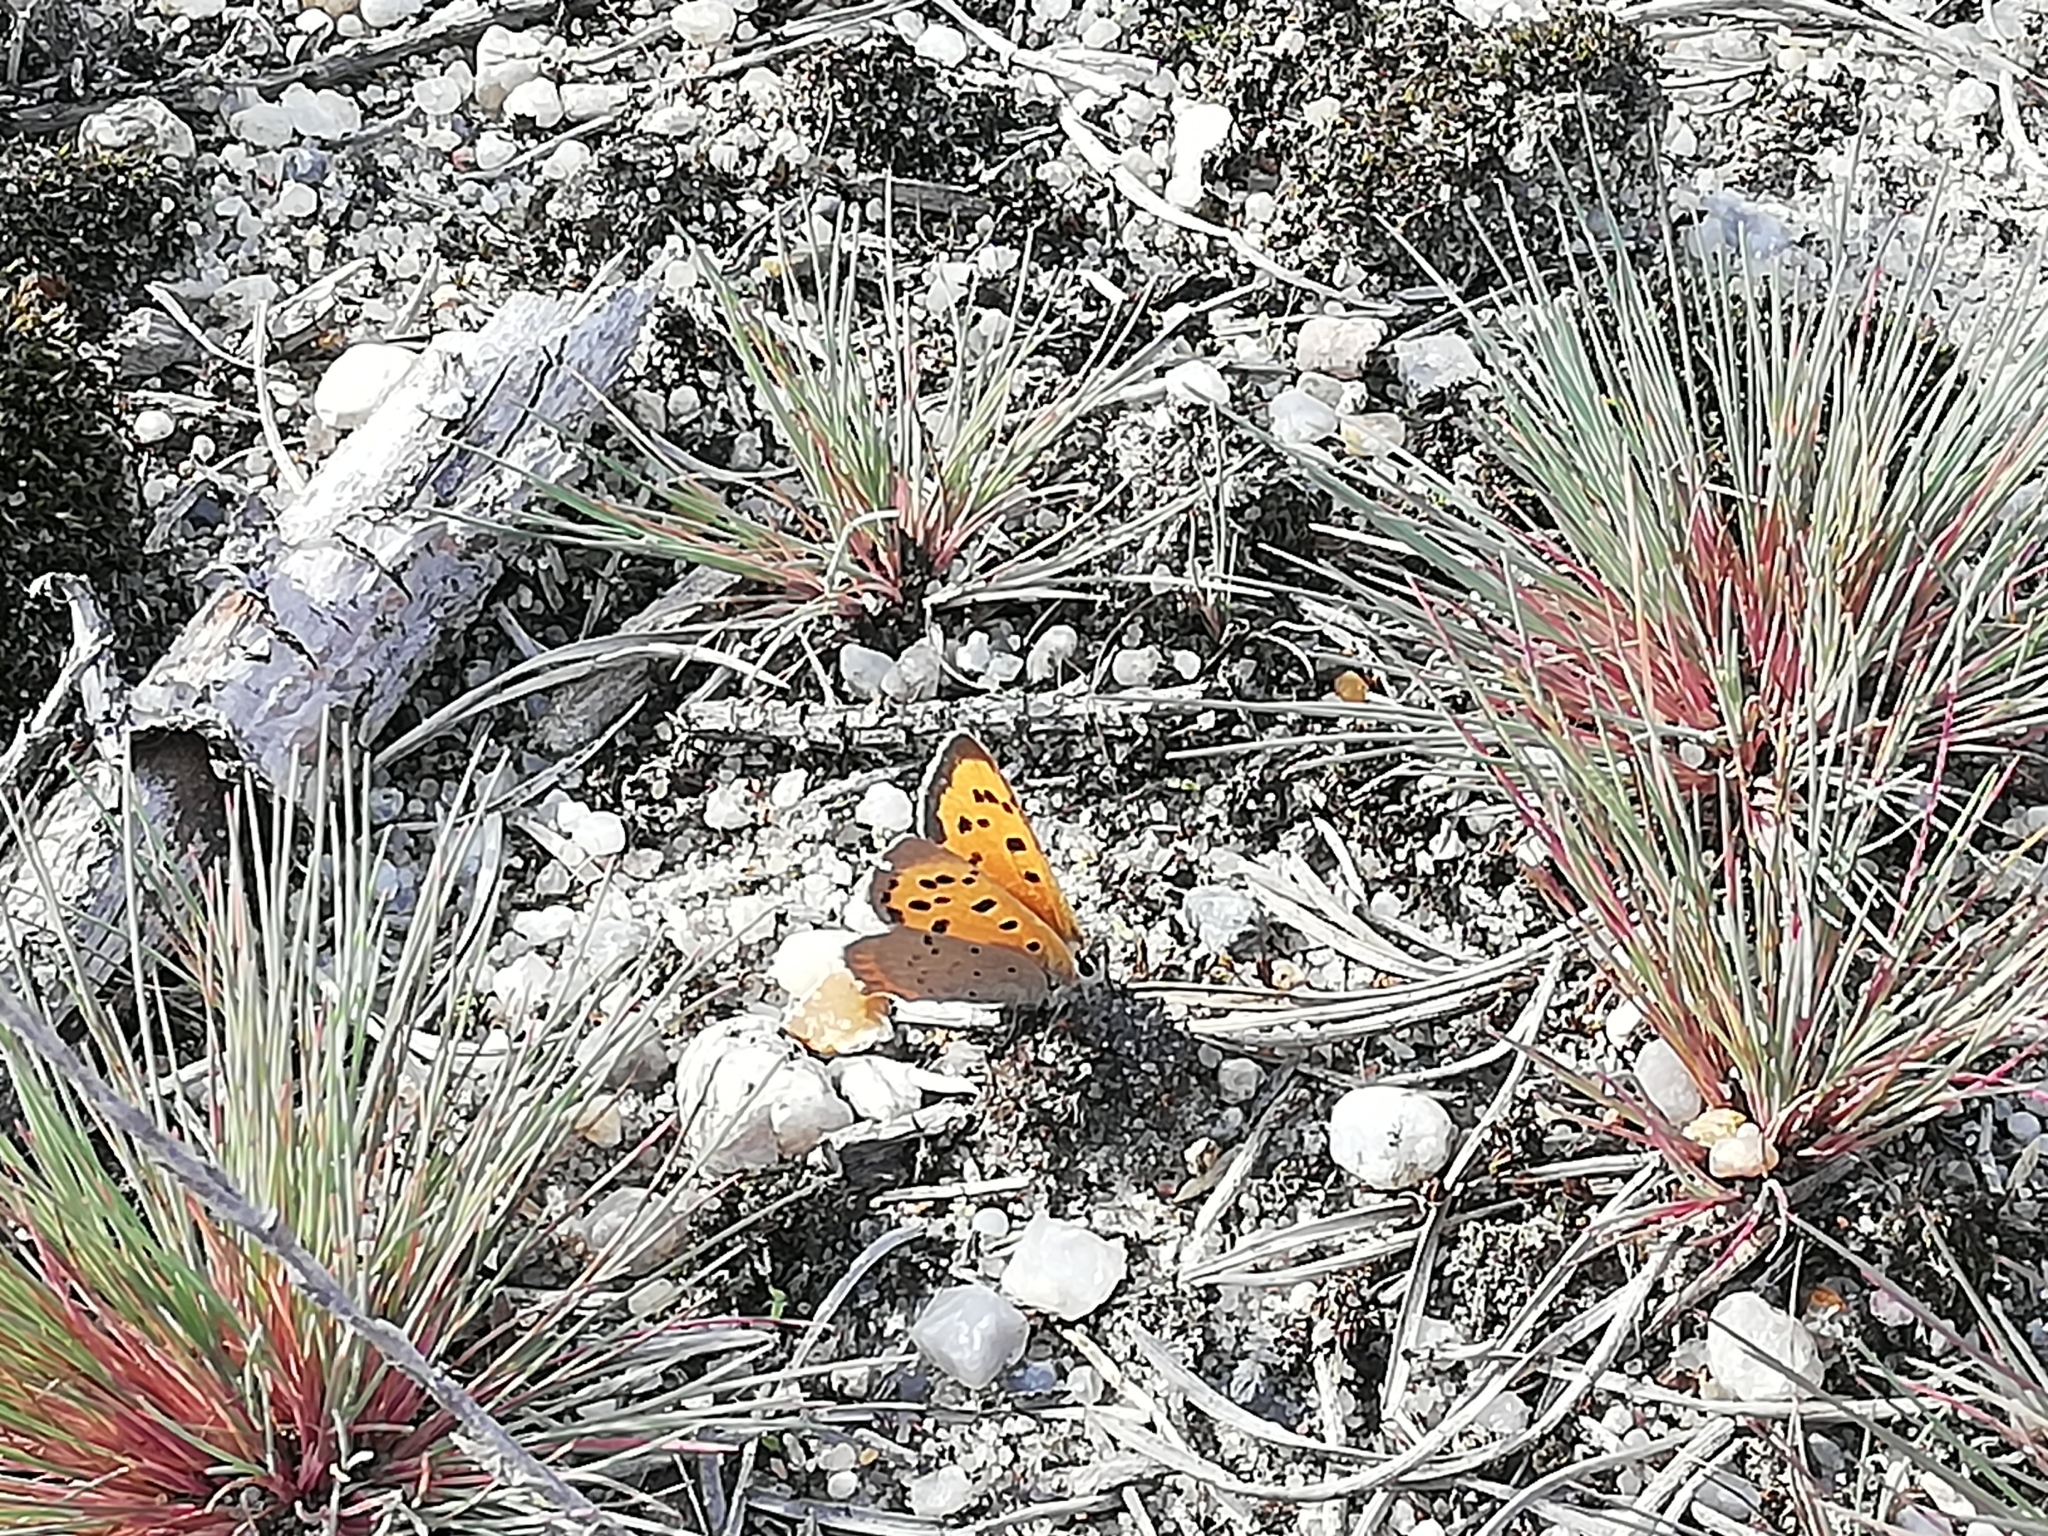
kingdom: Animalia
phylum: Arthropoda
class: Insecta
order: Lepidoptera
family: Lycaenidae
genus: Lycaena
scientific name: Lycaena phlaeas
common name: Small copper
